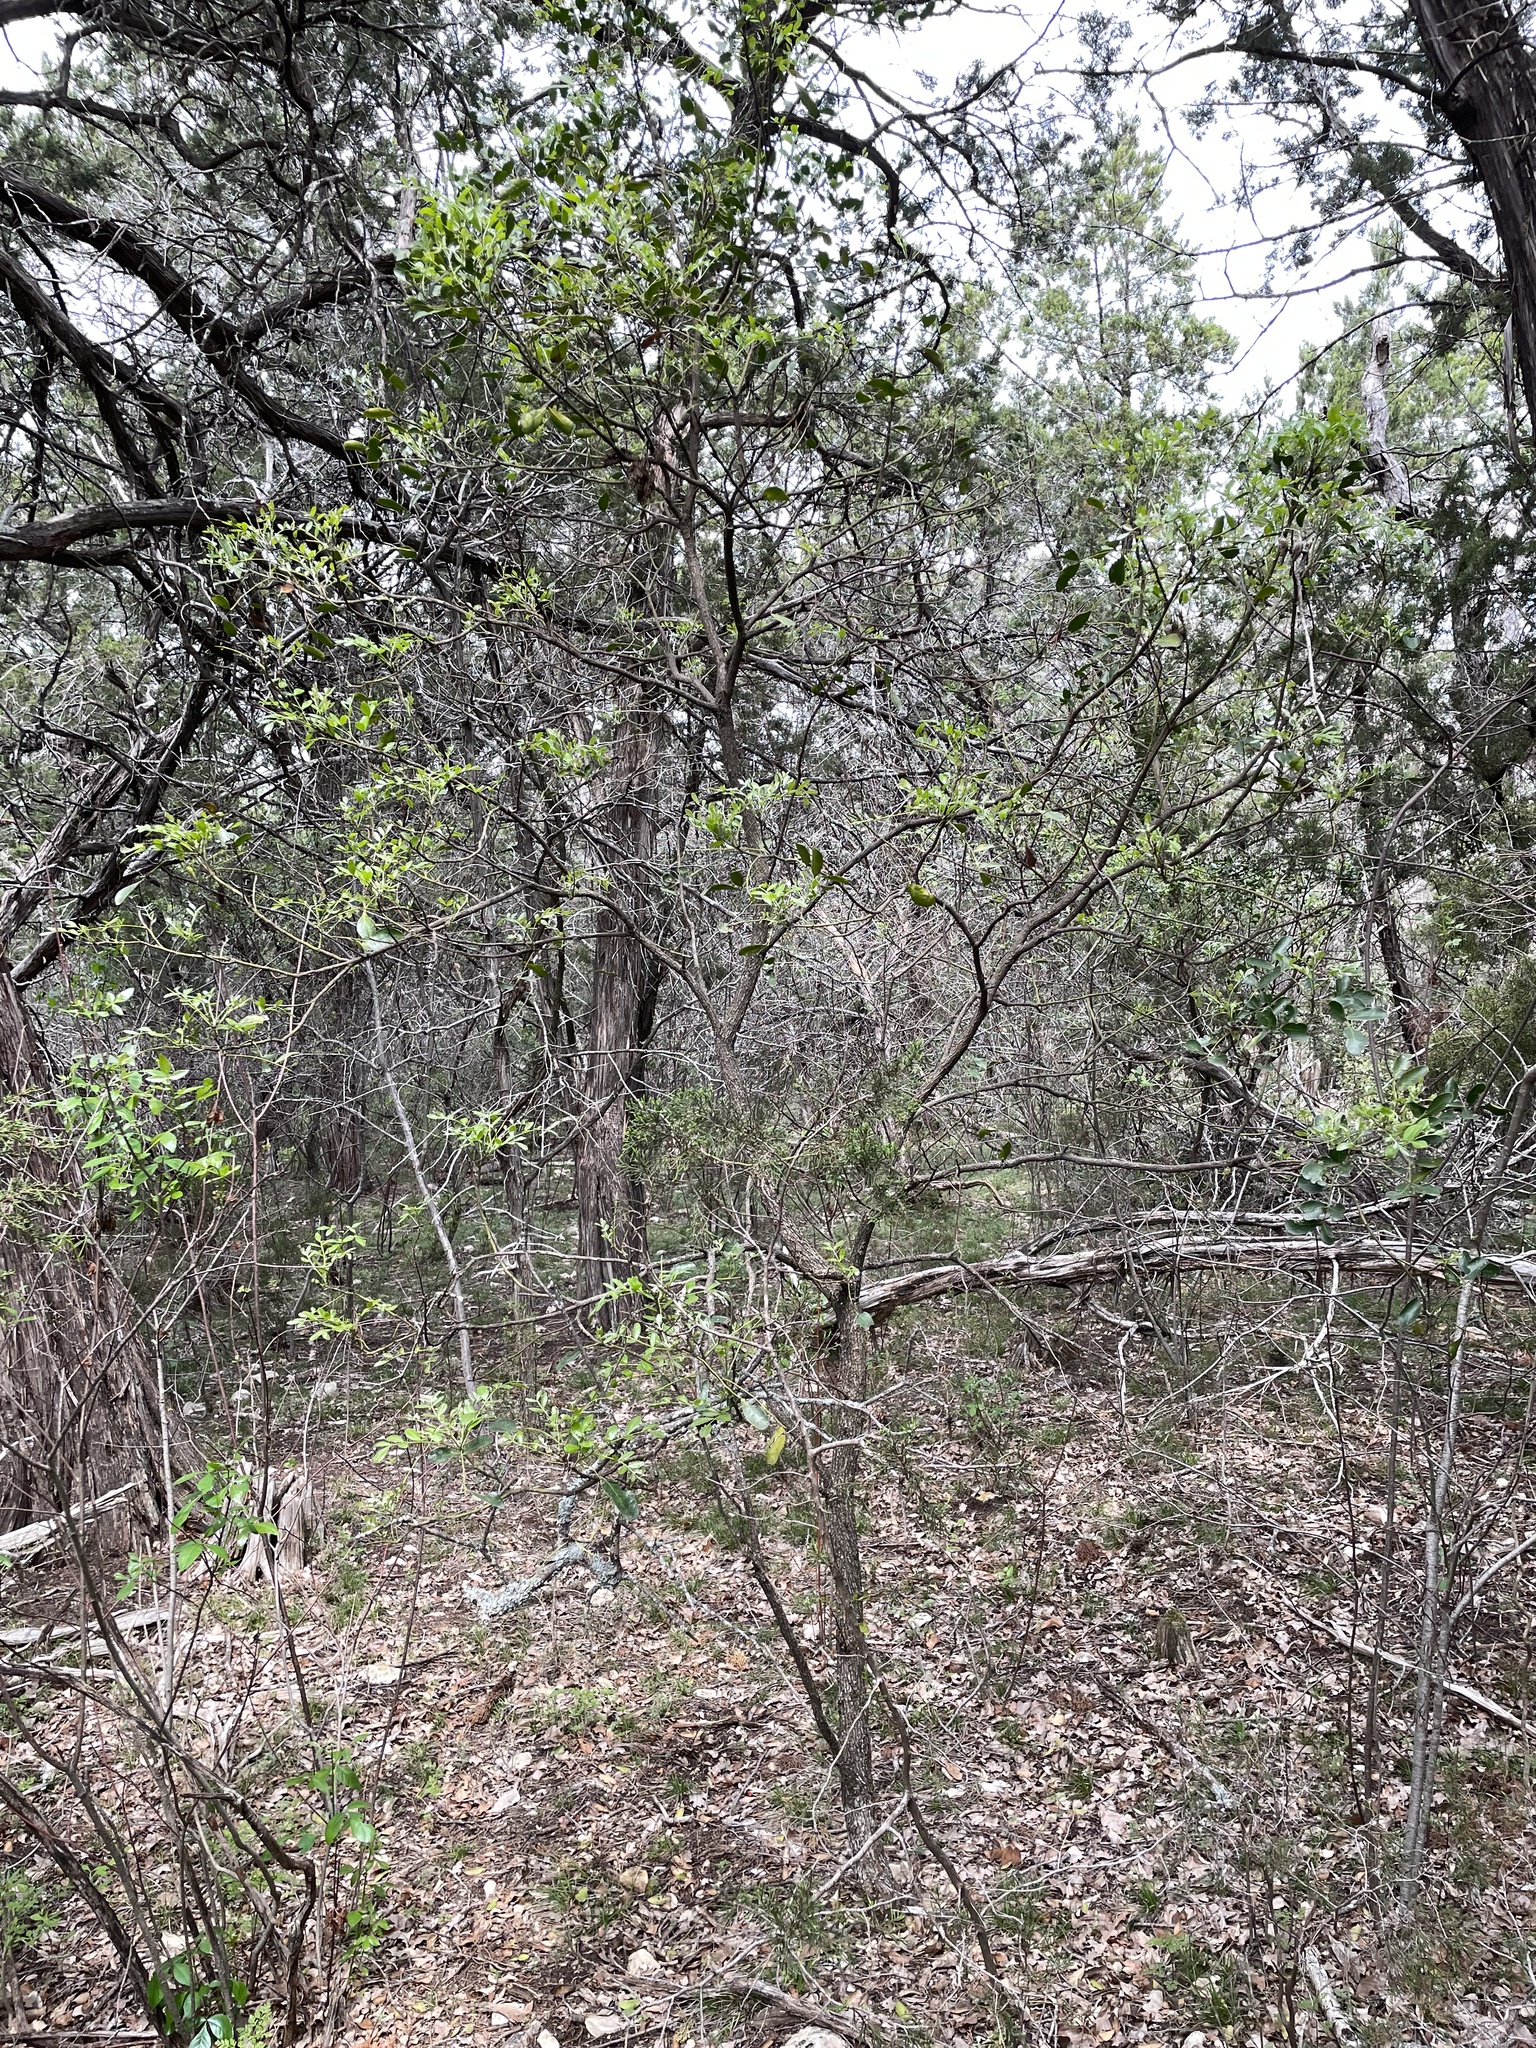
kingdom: Plantae
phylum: Tracheophyta
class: Magnoliopsida
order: Fabales
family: Fabaceae
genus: Dermatophyllum
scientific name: Dermatophyllum secundiflorum
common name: Texas-mountain-laurel
